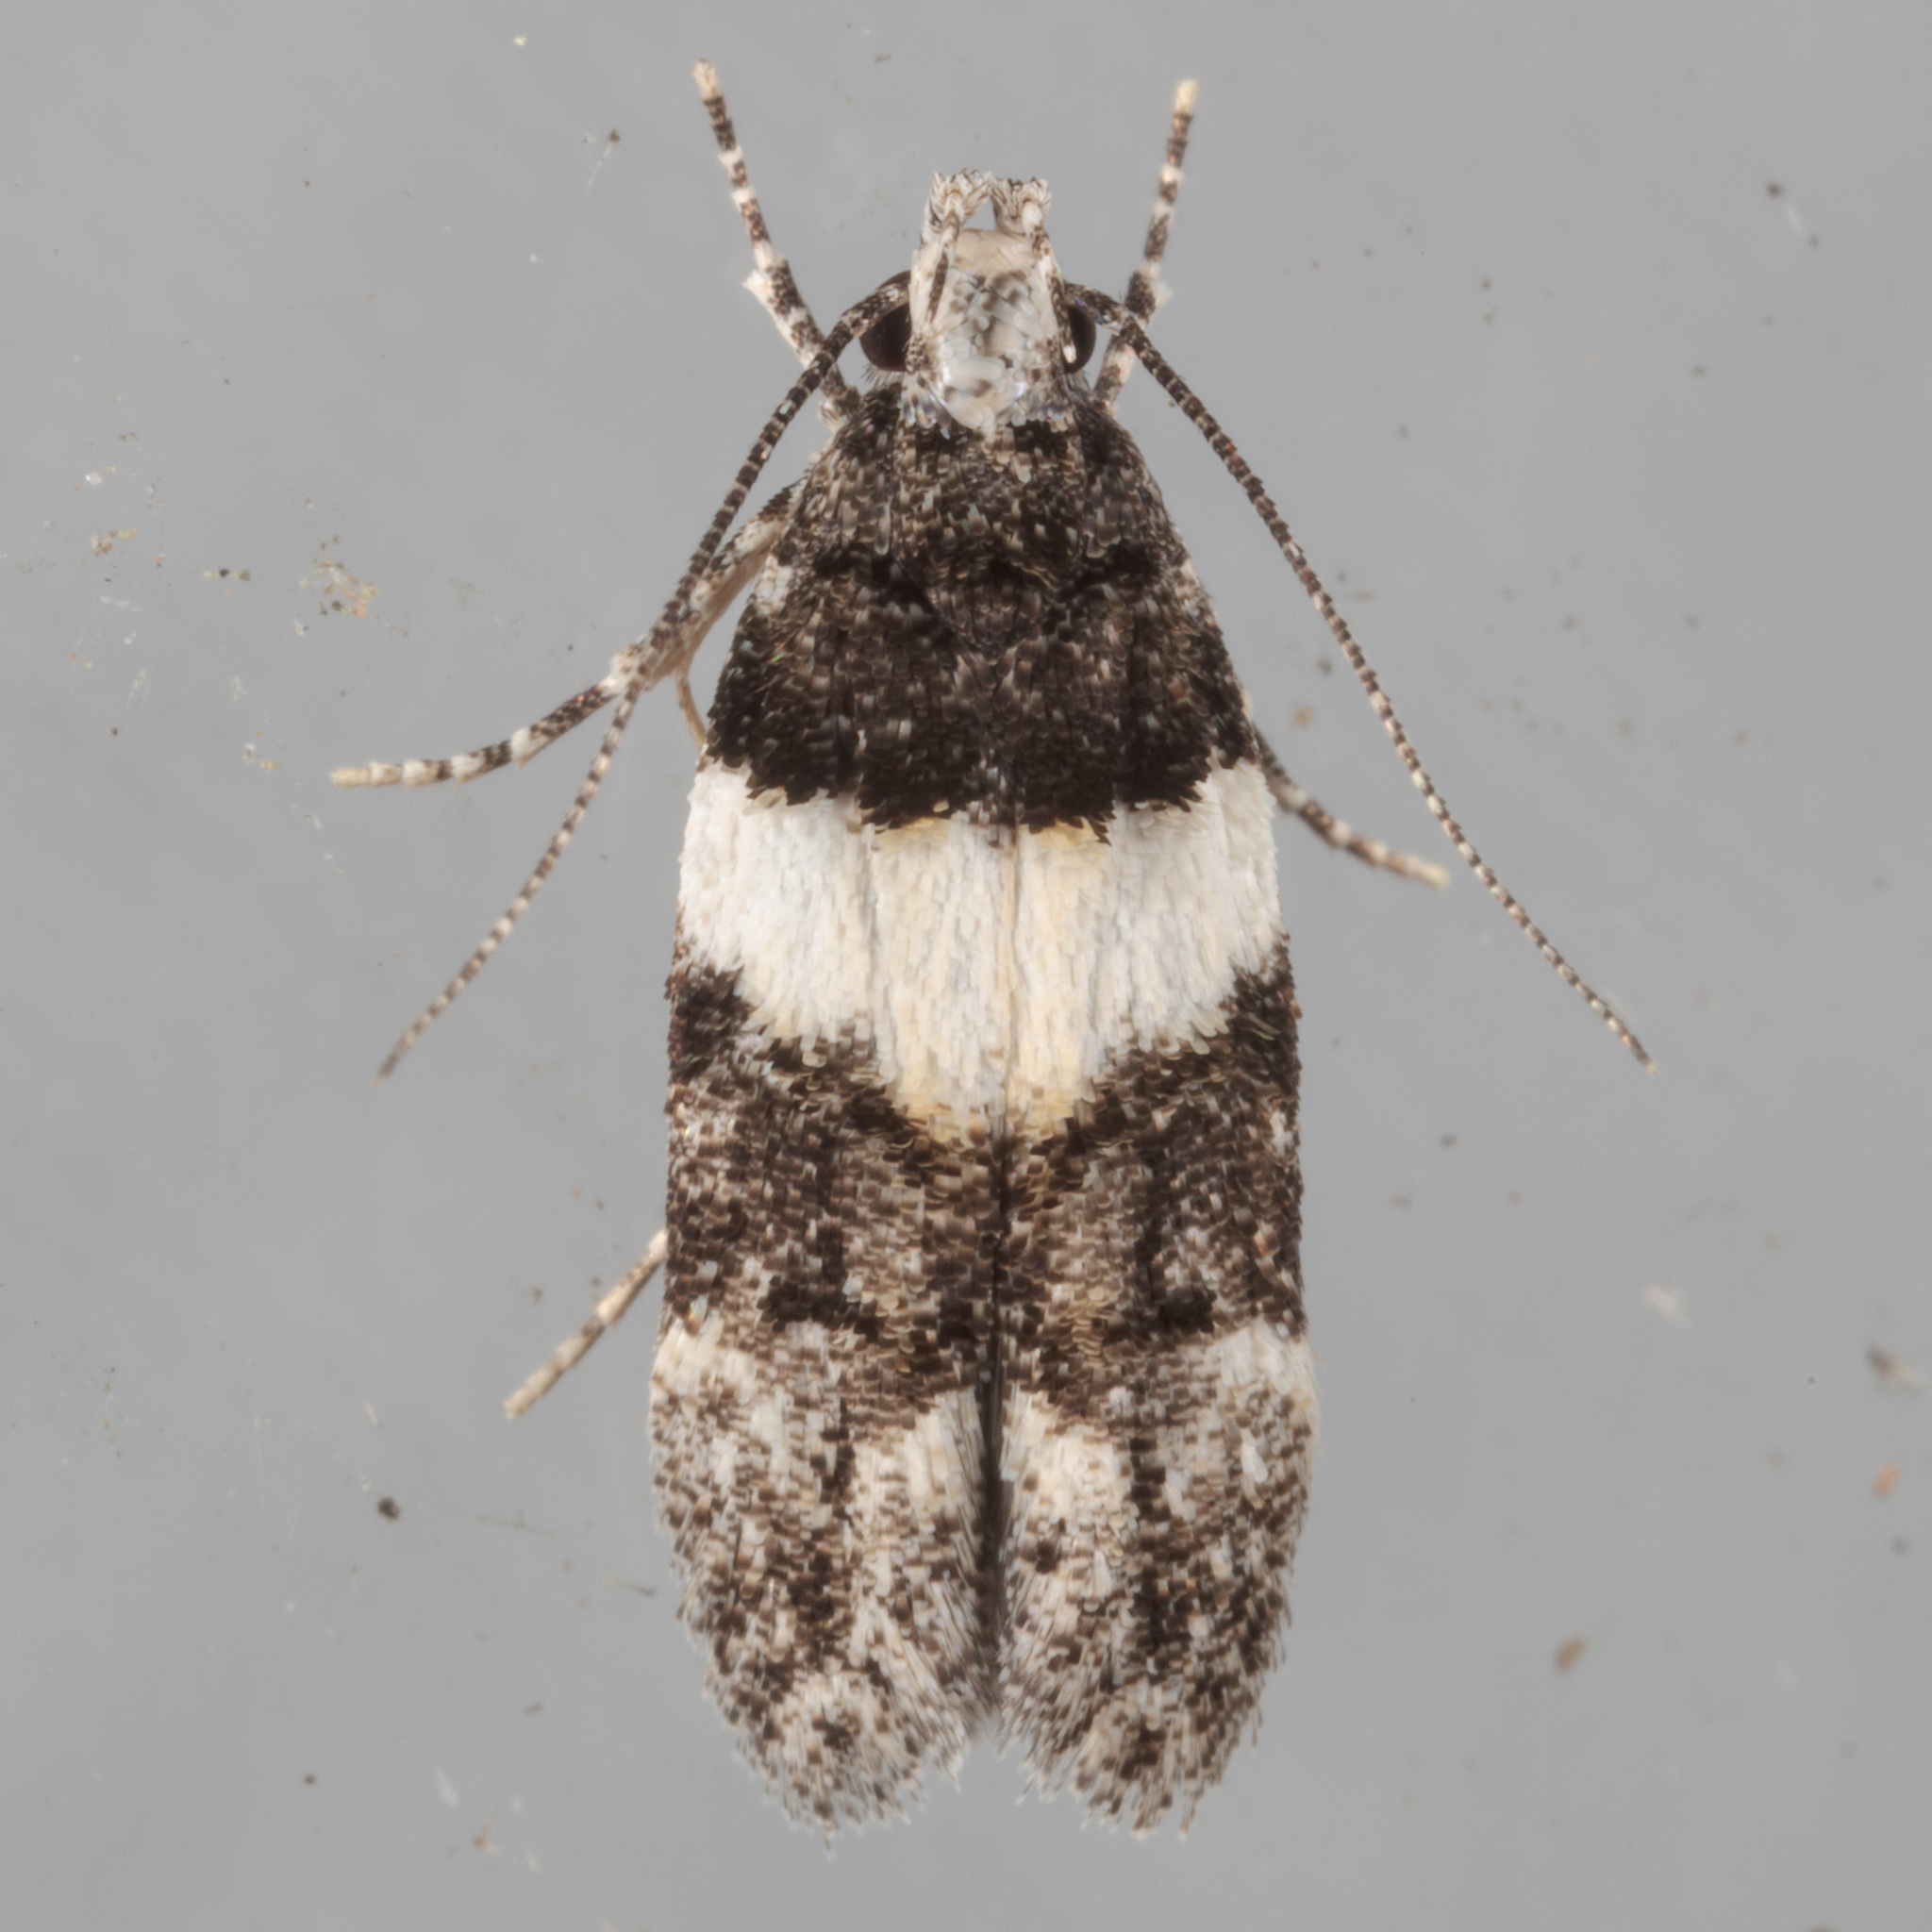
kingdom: Animalia
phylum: Arthropoda
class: Insecta
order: Lepidoptera
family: Gelechiidae
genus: Pubitelphusa
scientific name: Pubitelphusa latifasciella
